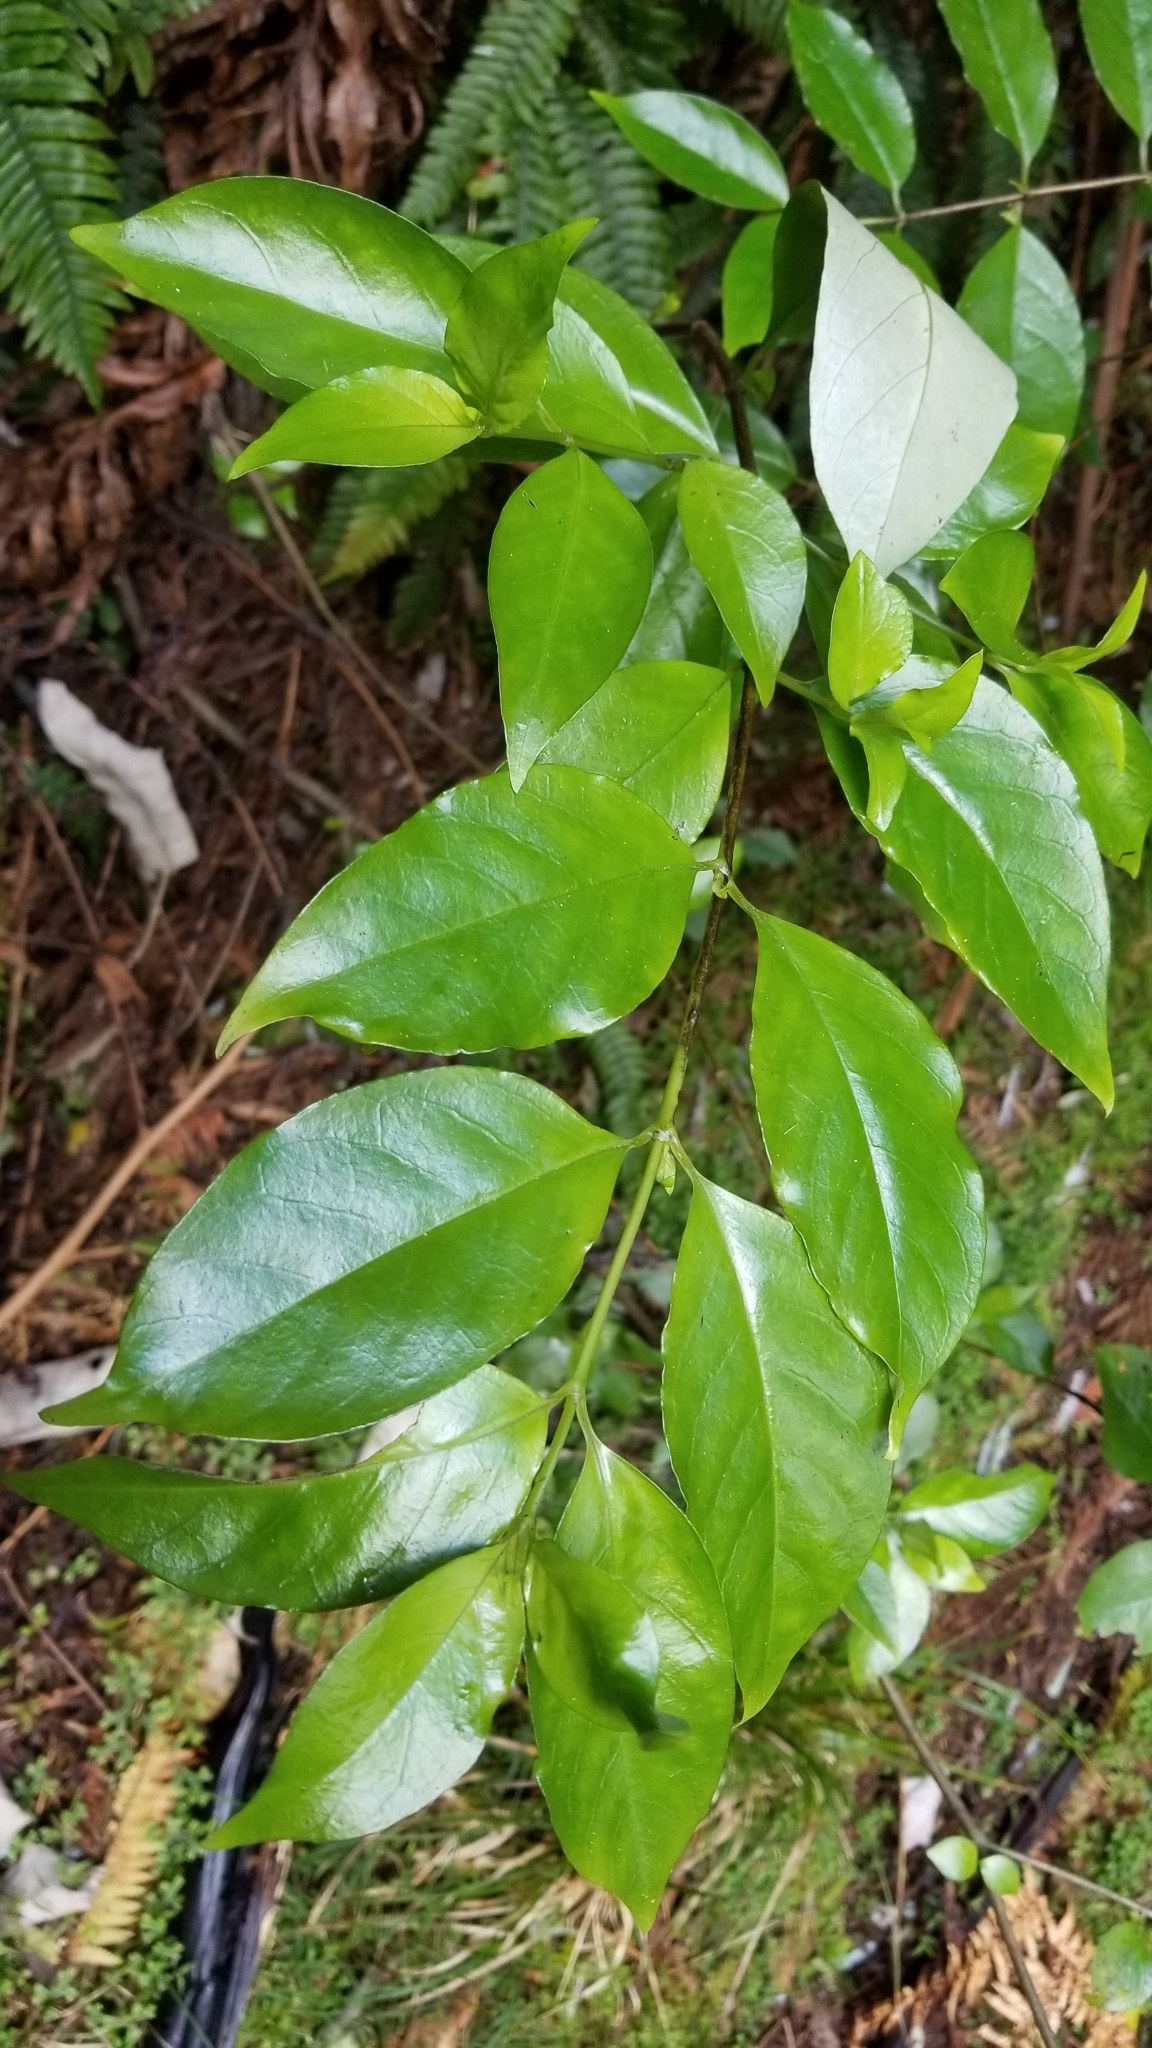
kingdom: Plantae
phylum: Tracheophyta
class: Magnoliopsida
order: Gentianales
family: Loganiaceae
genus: Geniostoma
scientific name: Geniostoma ligustrifolium
